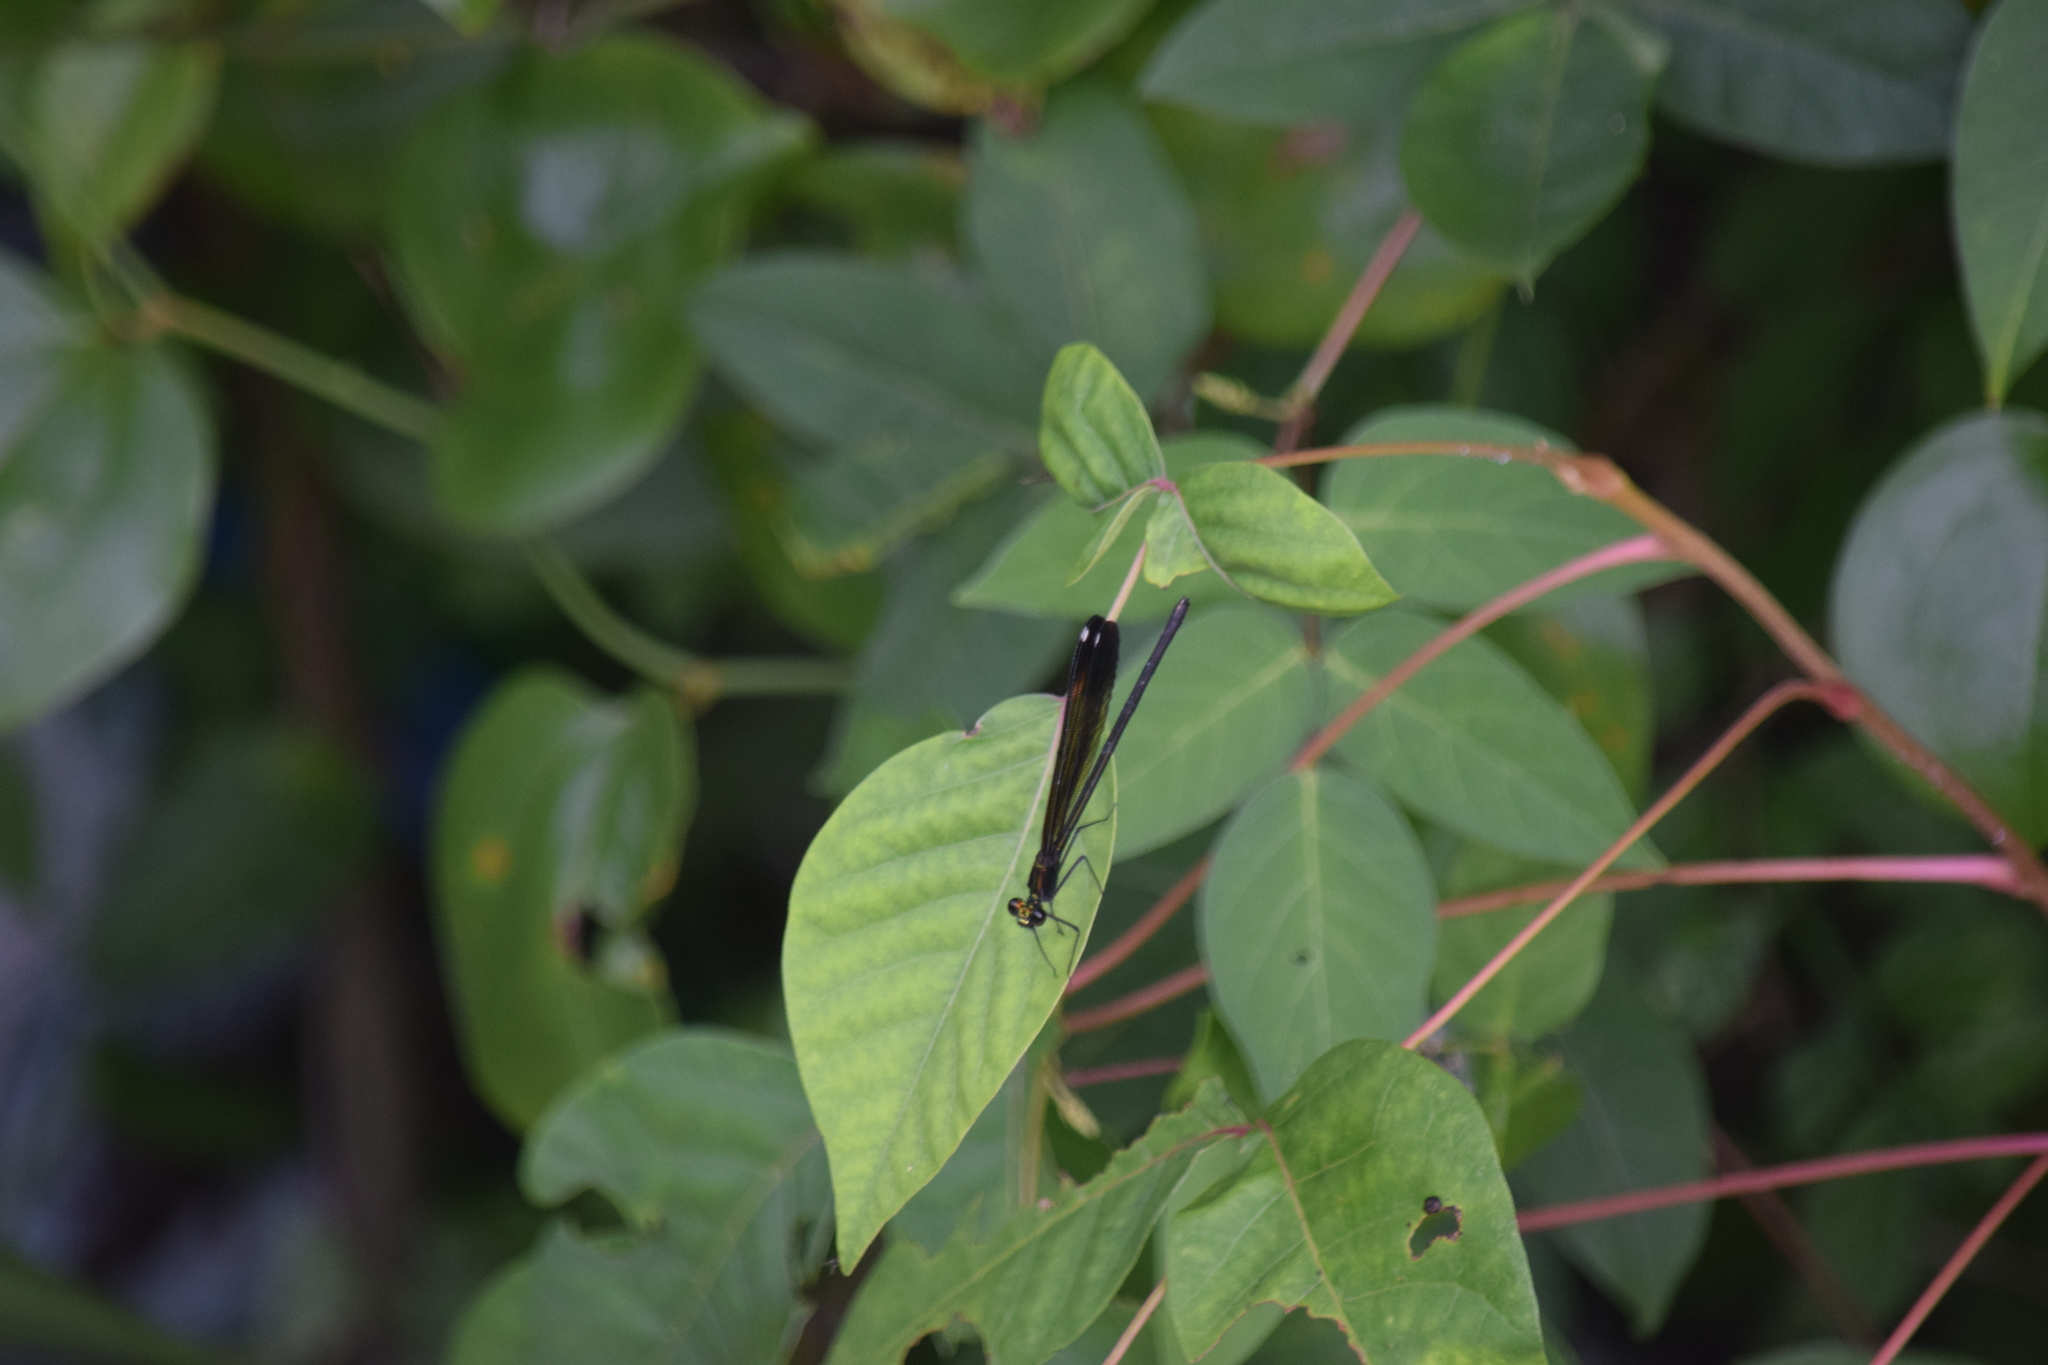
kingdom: Animalia
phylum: Arthropoda
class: Insecta
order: Odonata
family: Calopterygidae
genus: Calopteryx
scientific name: Calopteryx maculata
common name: Ebony jewelwing
